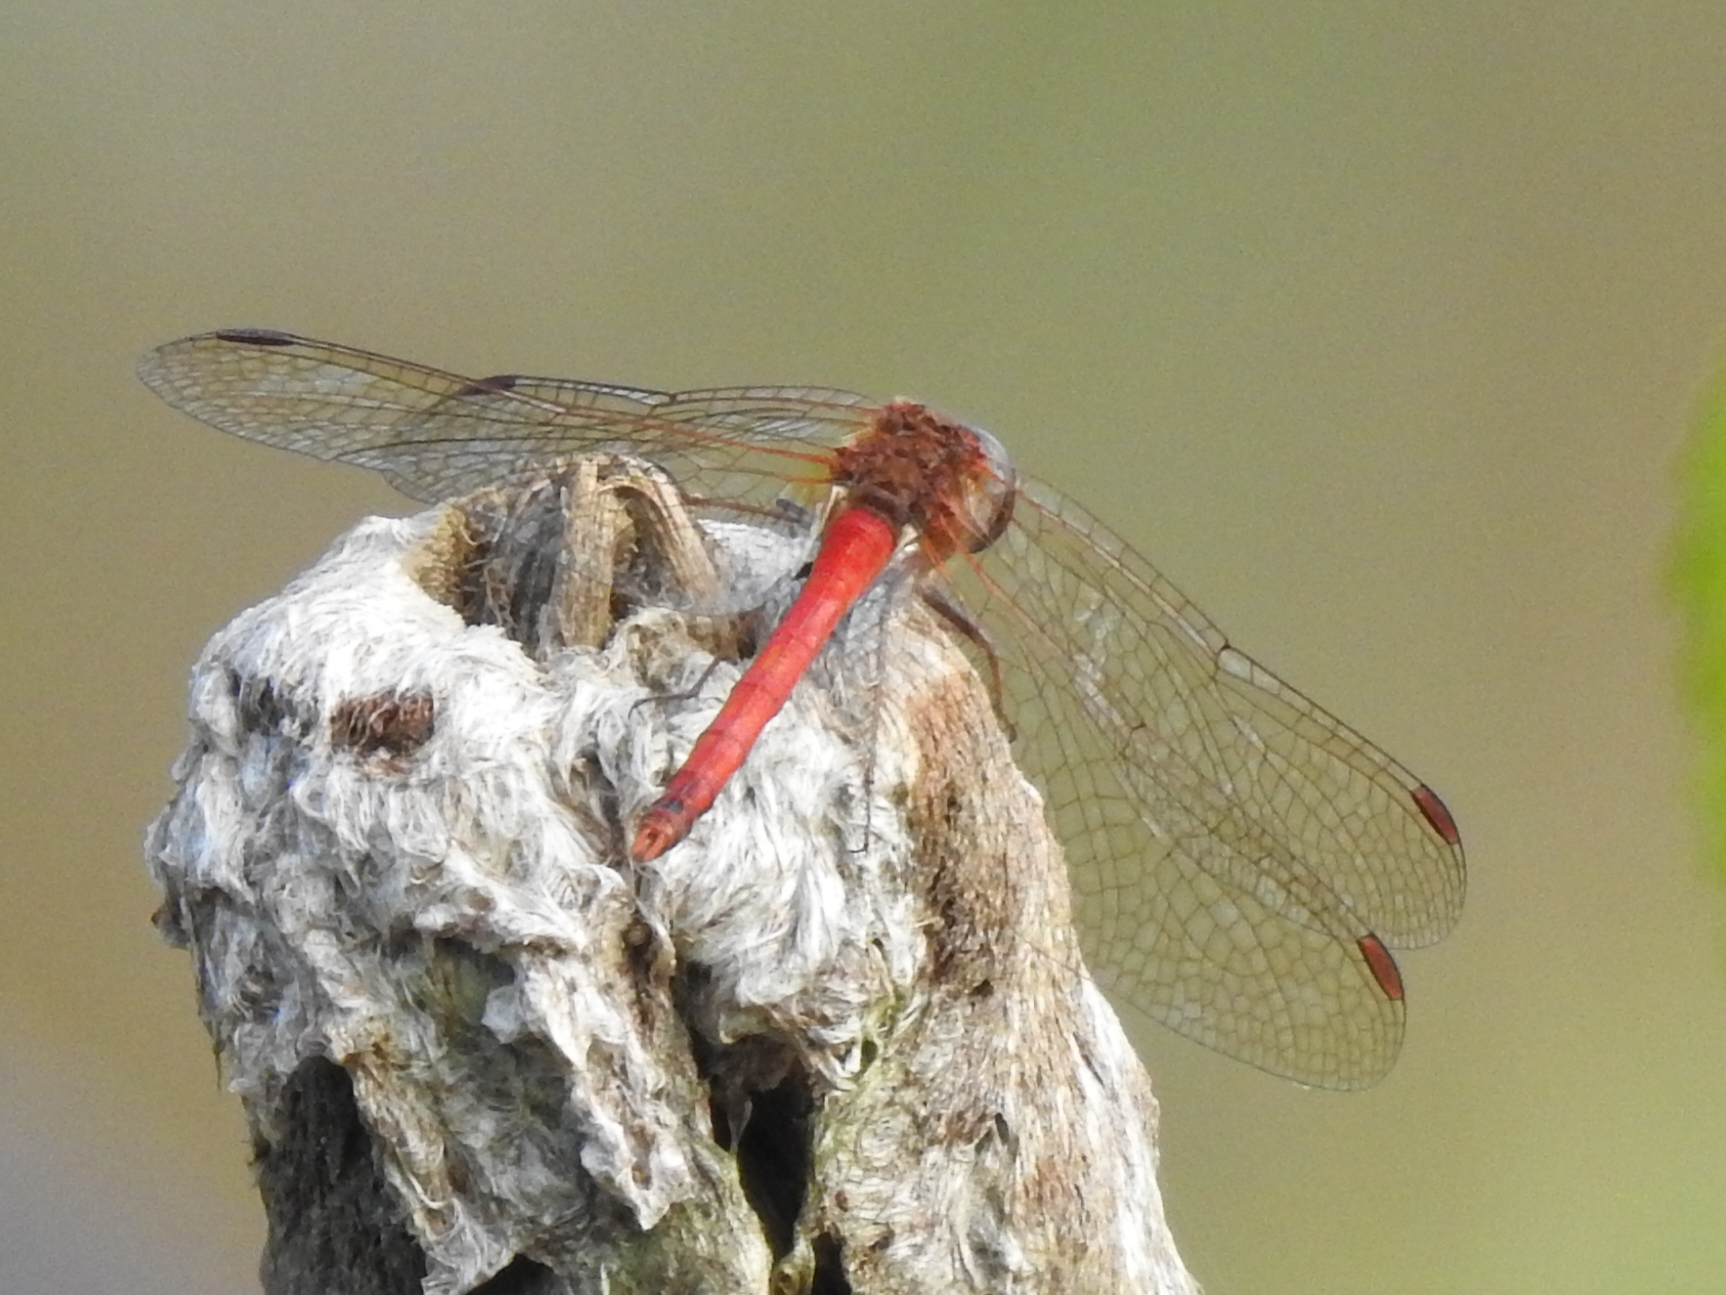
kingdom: Animalia
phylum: Arthropoda
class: Insecta
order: Odonata
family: Libellulidae
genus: Sympetrum
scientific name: Sympetrum vicinum
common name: Autumn meadowhawk
